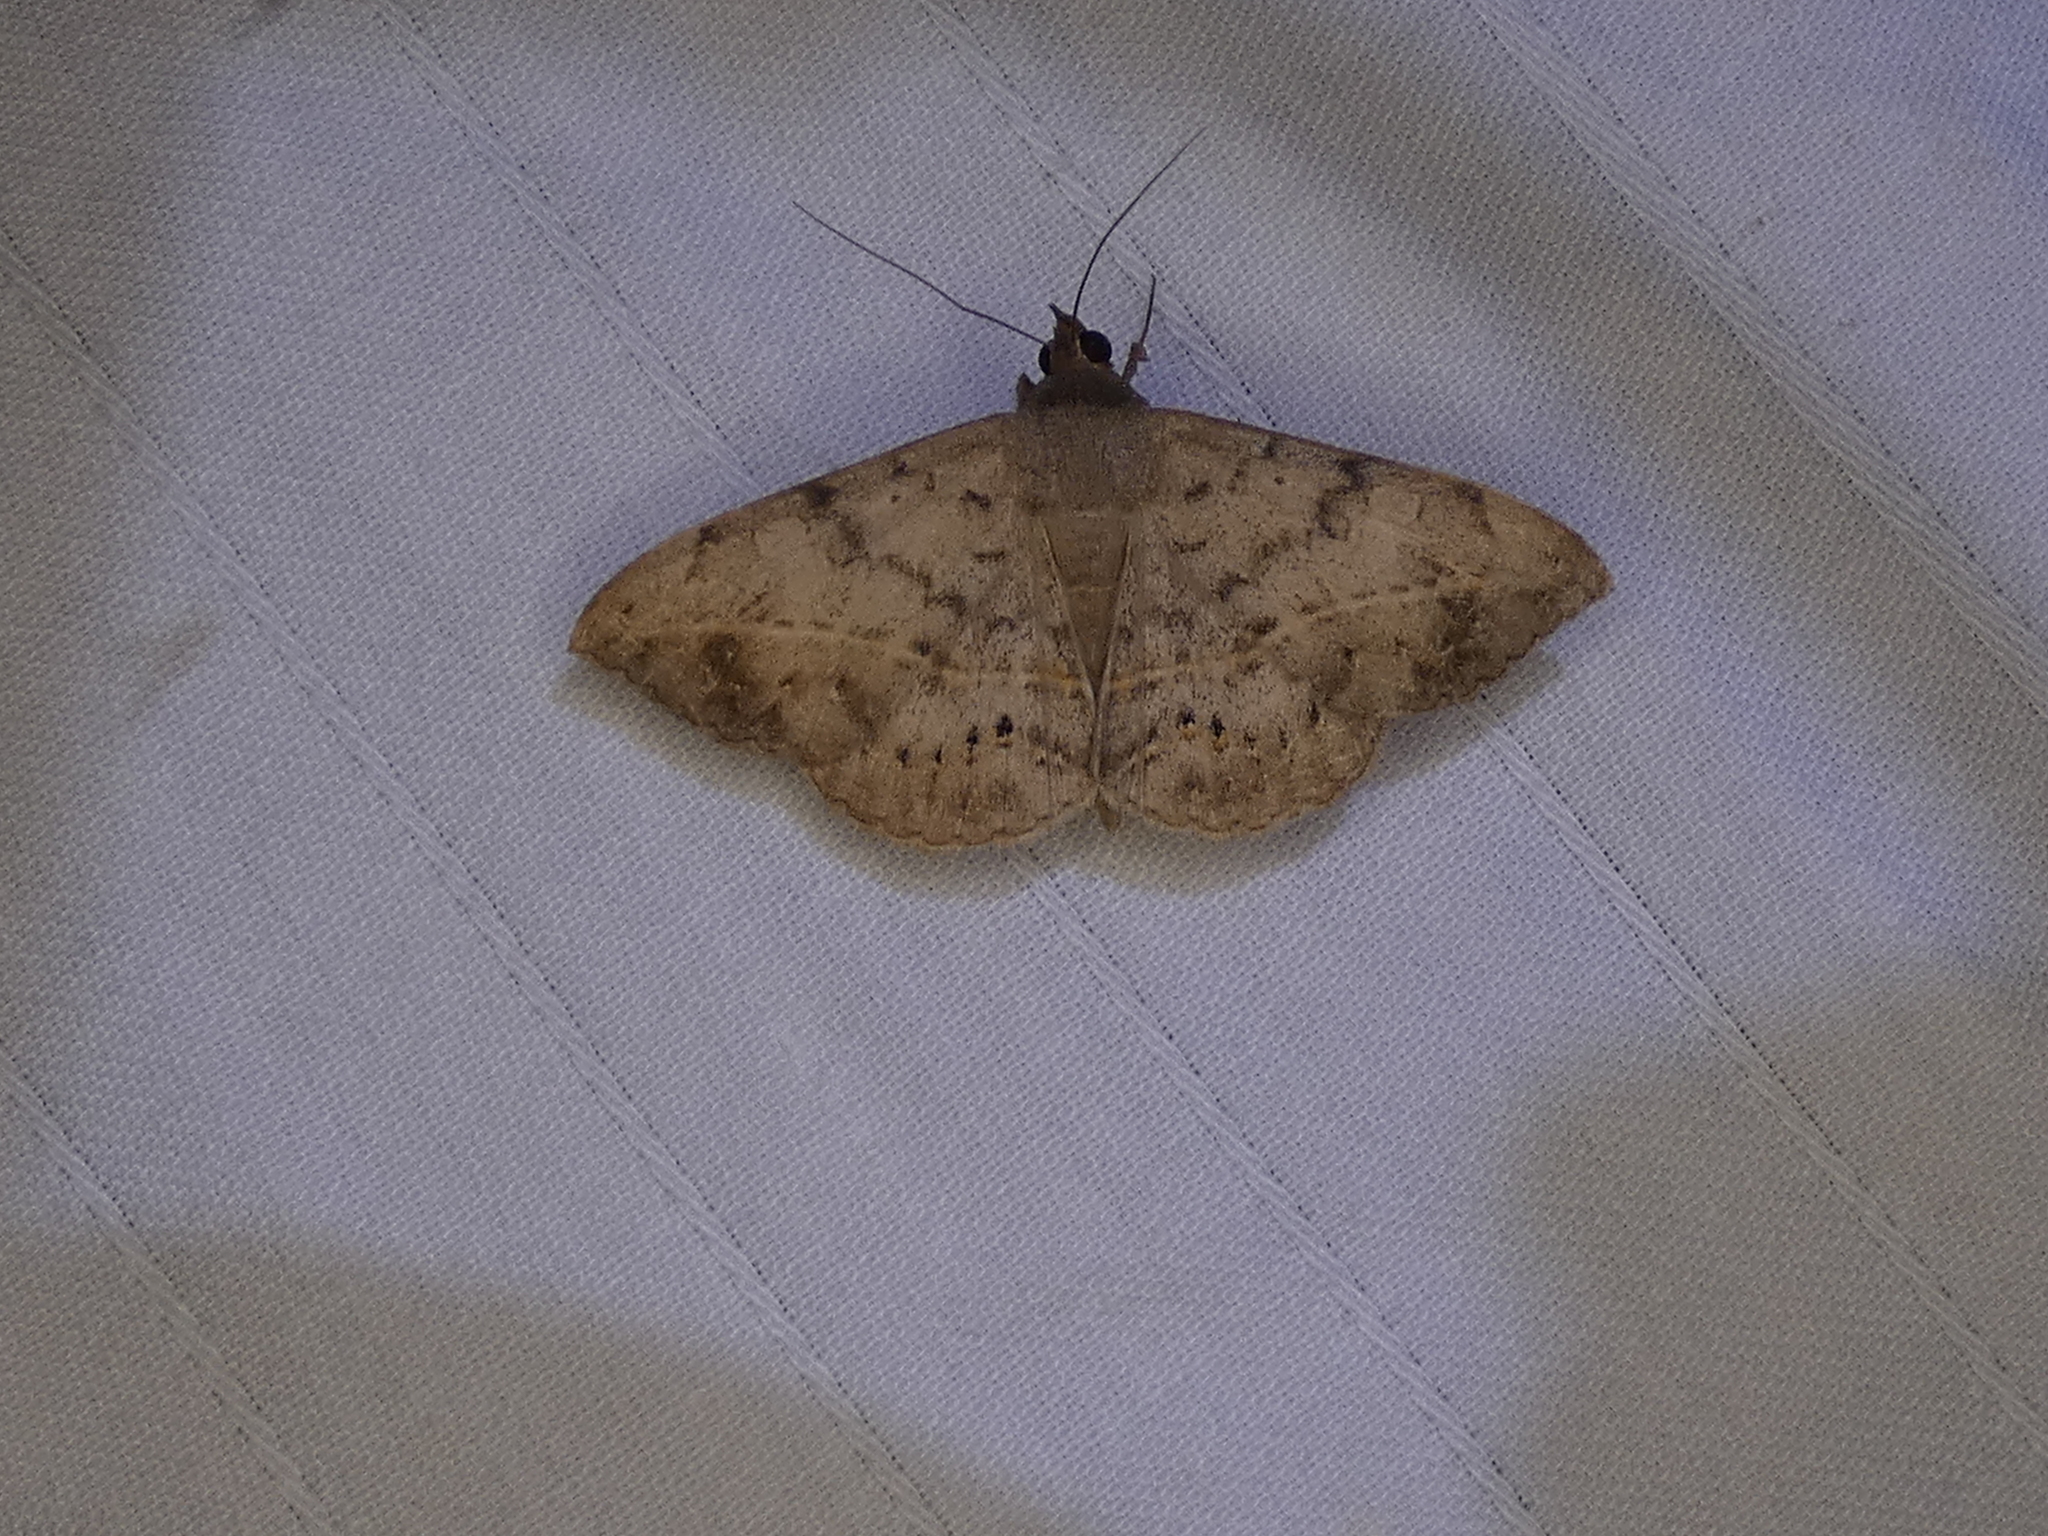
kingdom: Animalia
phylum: Arthropoda
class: Insecta
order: Lepidoptera
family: Erebidae
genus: Anticarsia
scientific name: Anticarsia gemmatalis
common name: Cutworm moth
